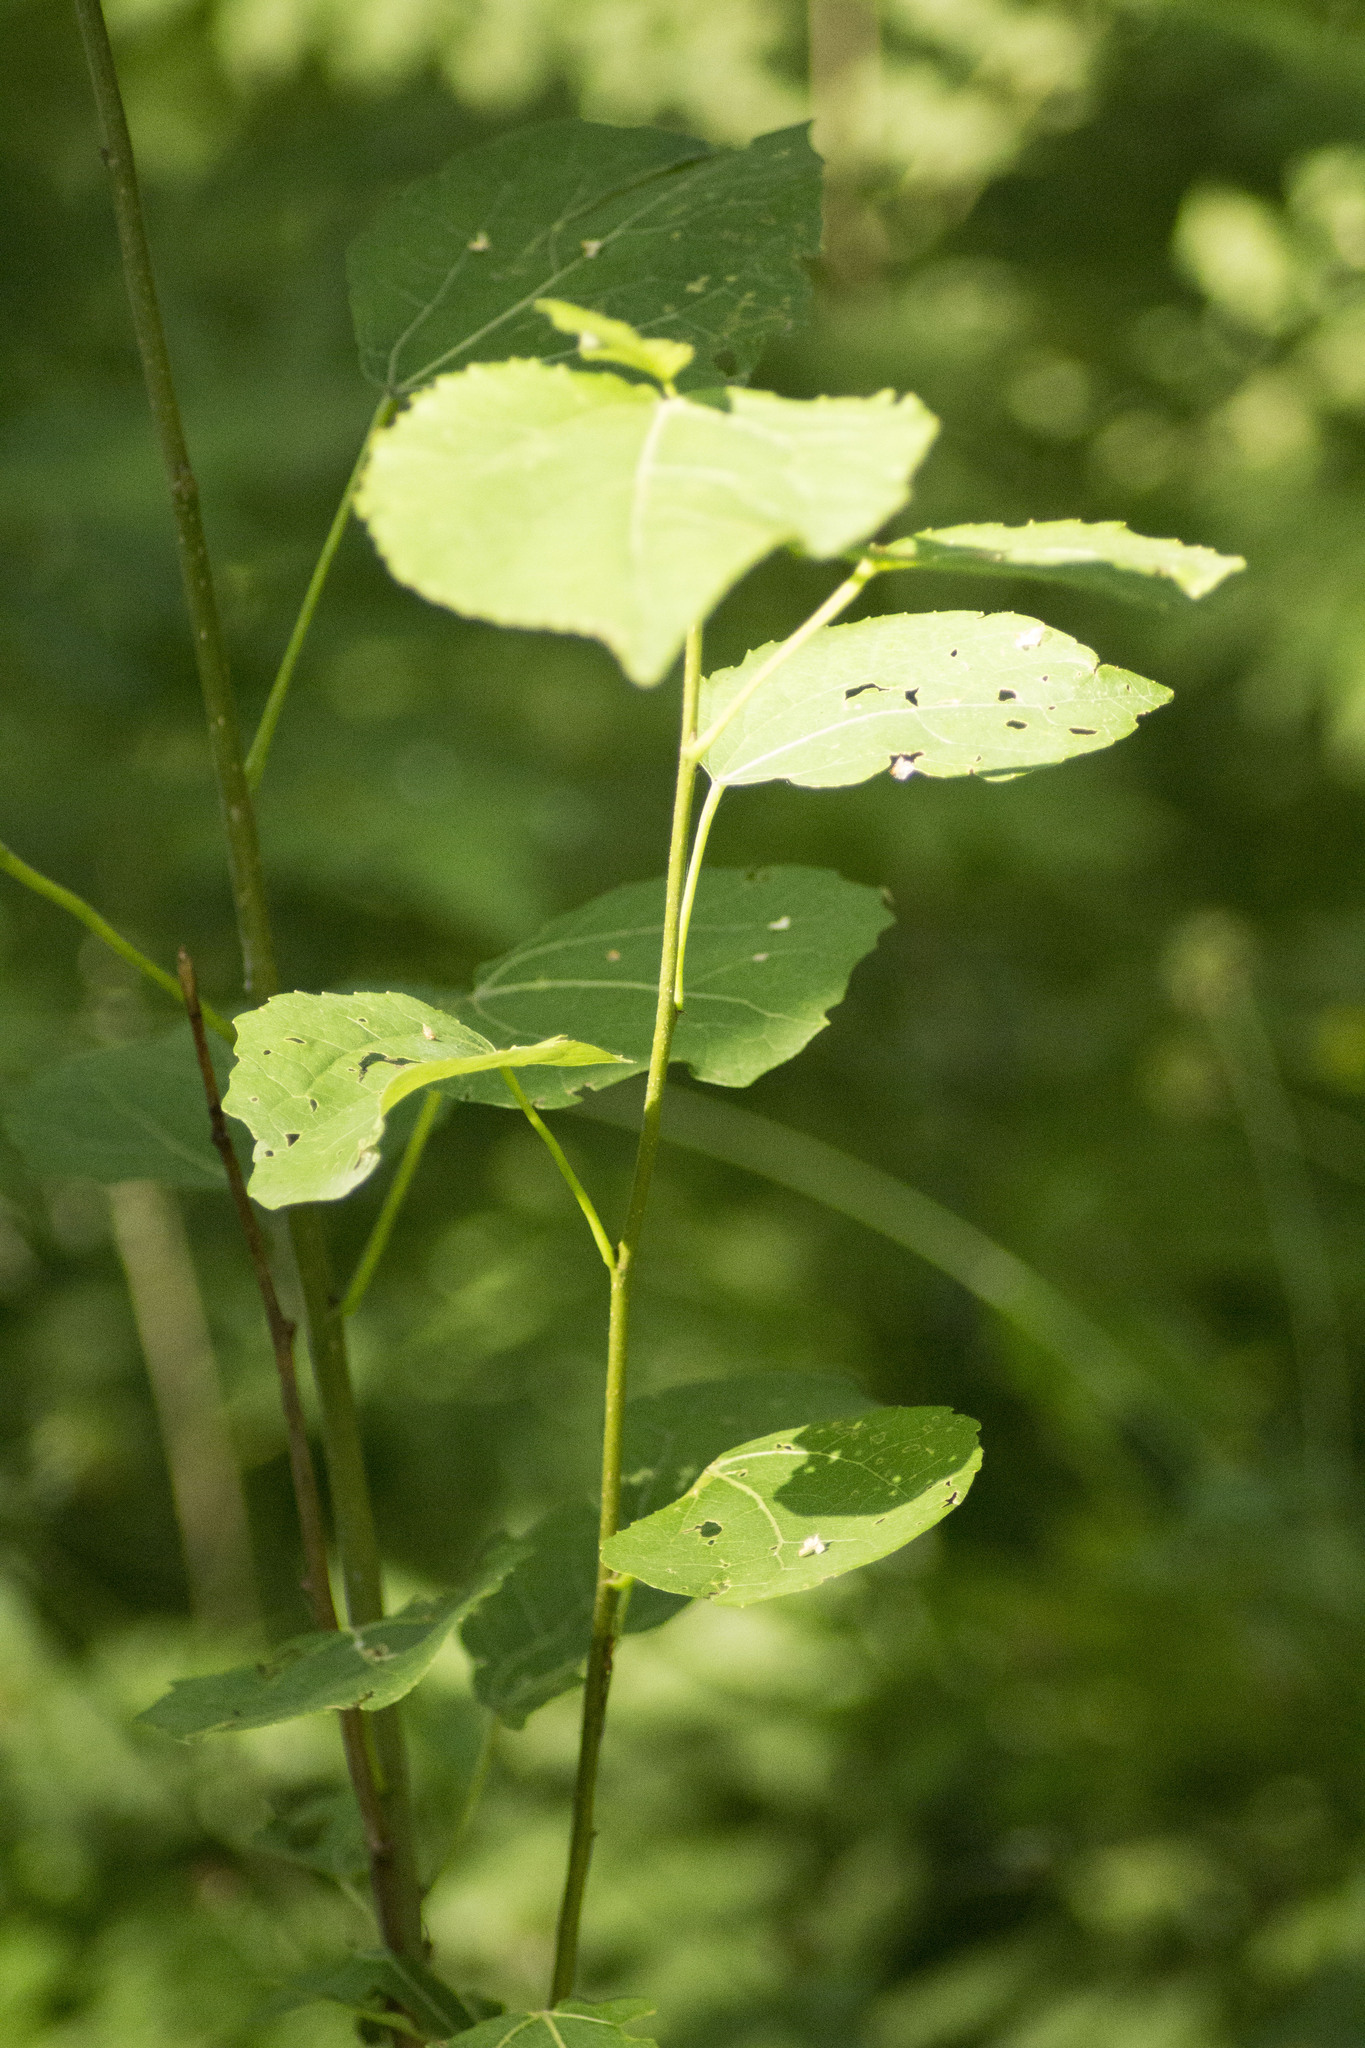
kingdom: Plantae
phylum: Tracheophyta
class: Magnoliopsida
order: Malpighiales
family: Salicaceae
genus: Populus
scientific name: Populus tremula
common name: European aspen
